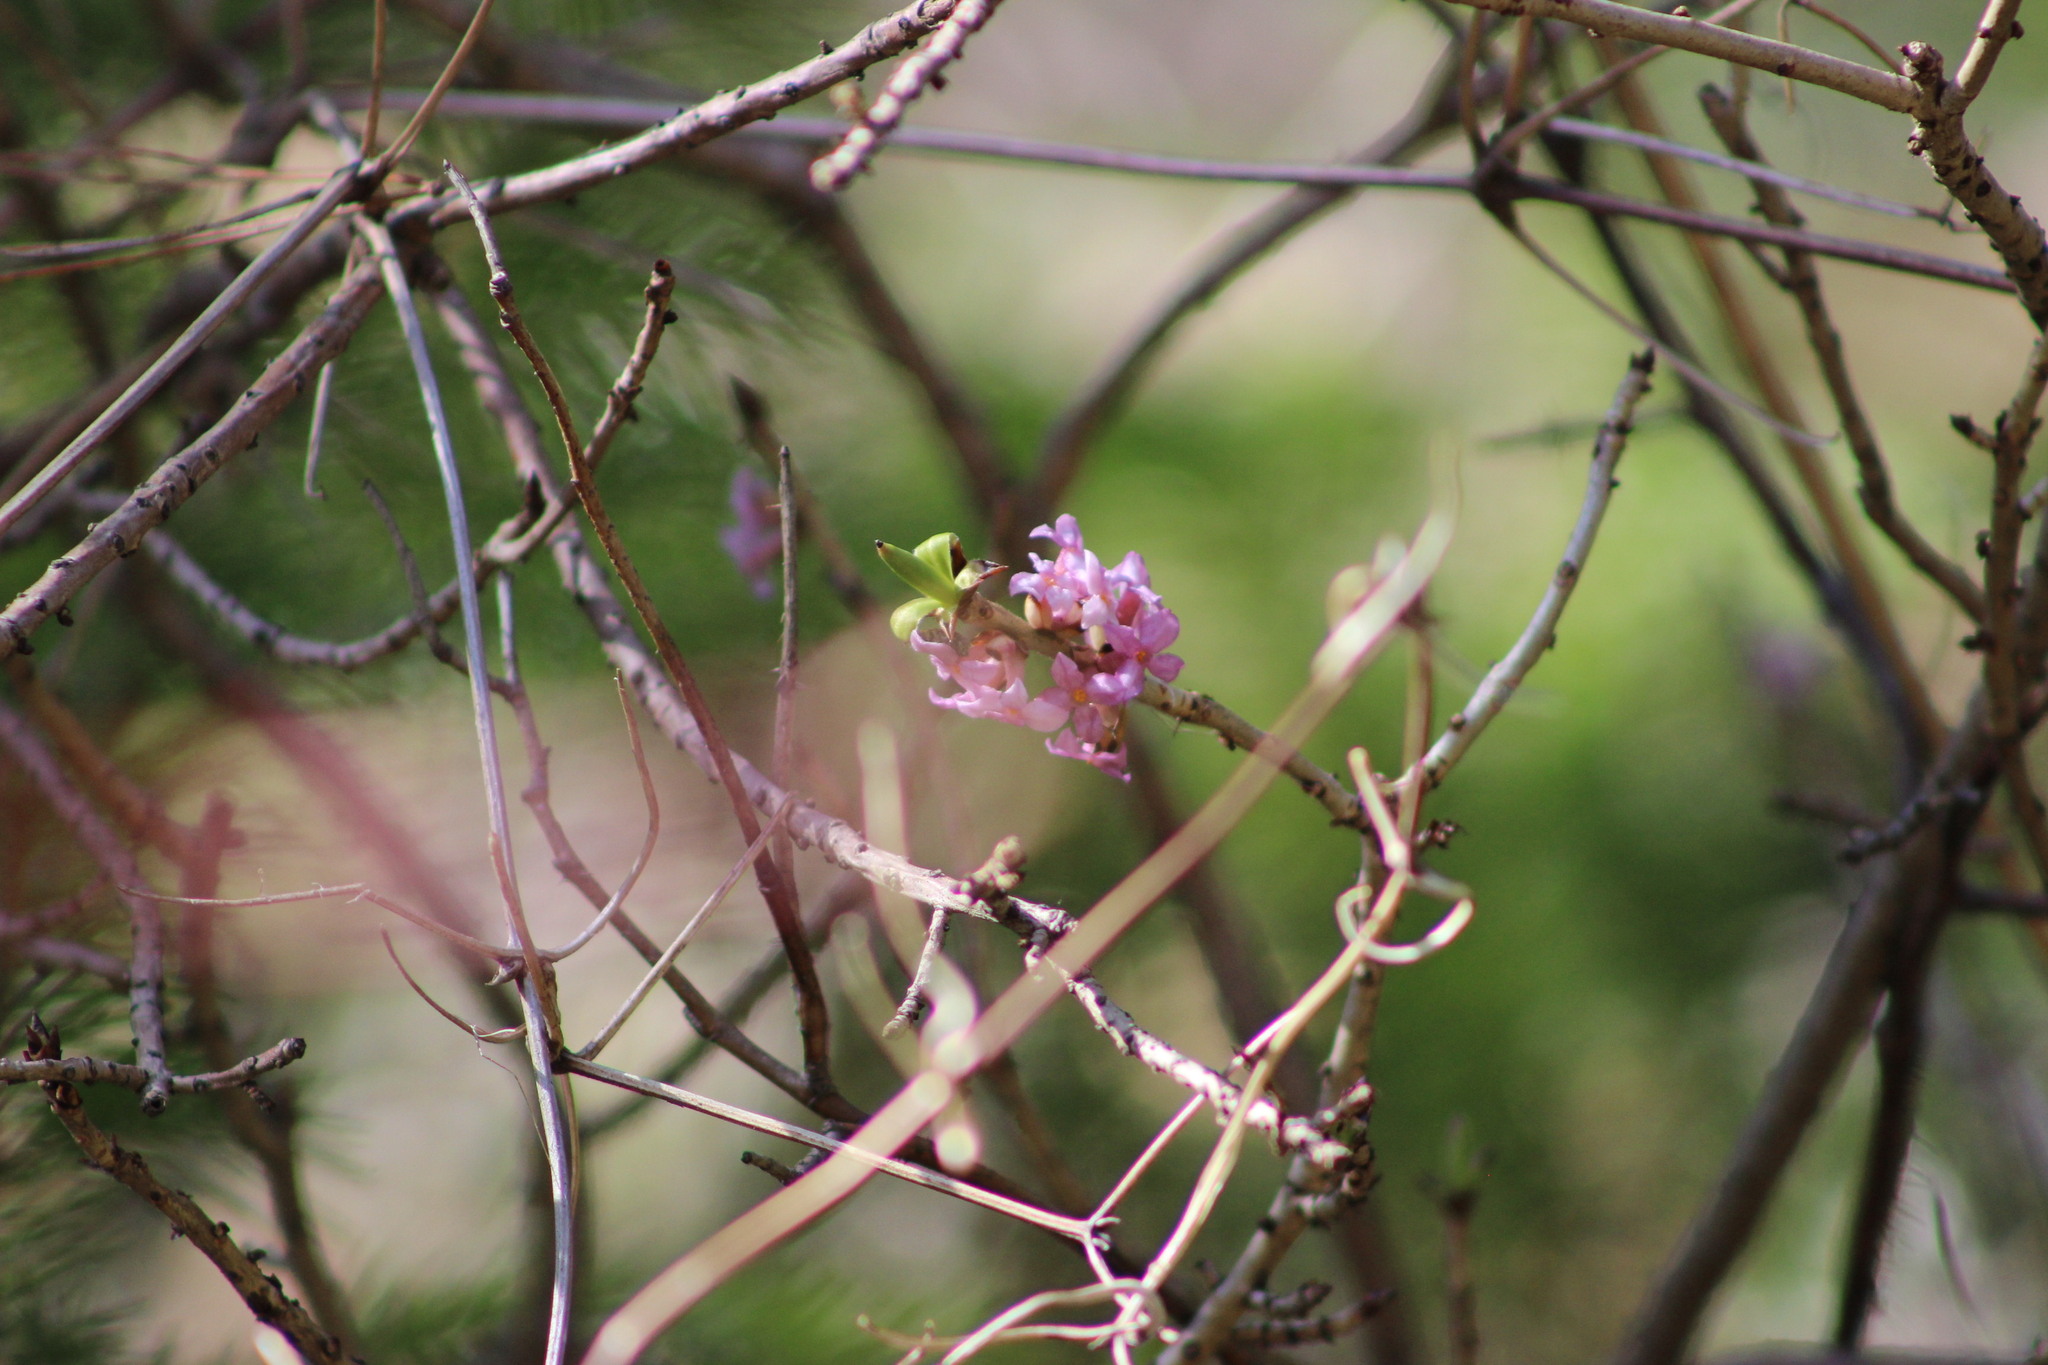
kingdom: Plantae
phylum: Tracheophyta
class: Magnoliopsida
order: Malvales
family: Thymelaeaceae
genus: Daphne
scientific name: Daphne mezereum
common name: Mezereon
